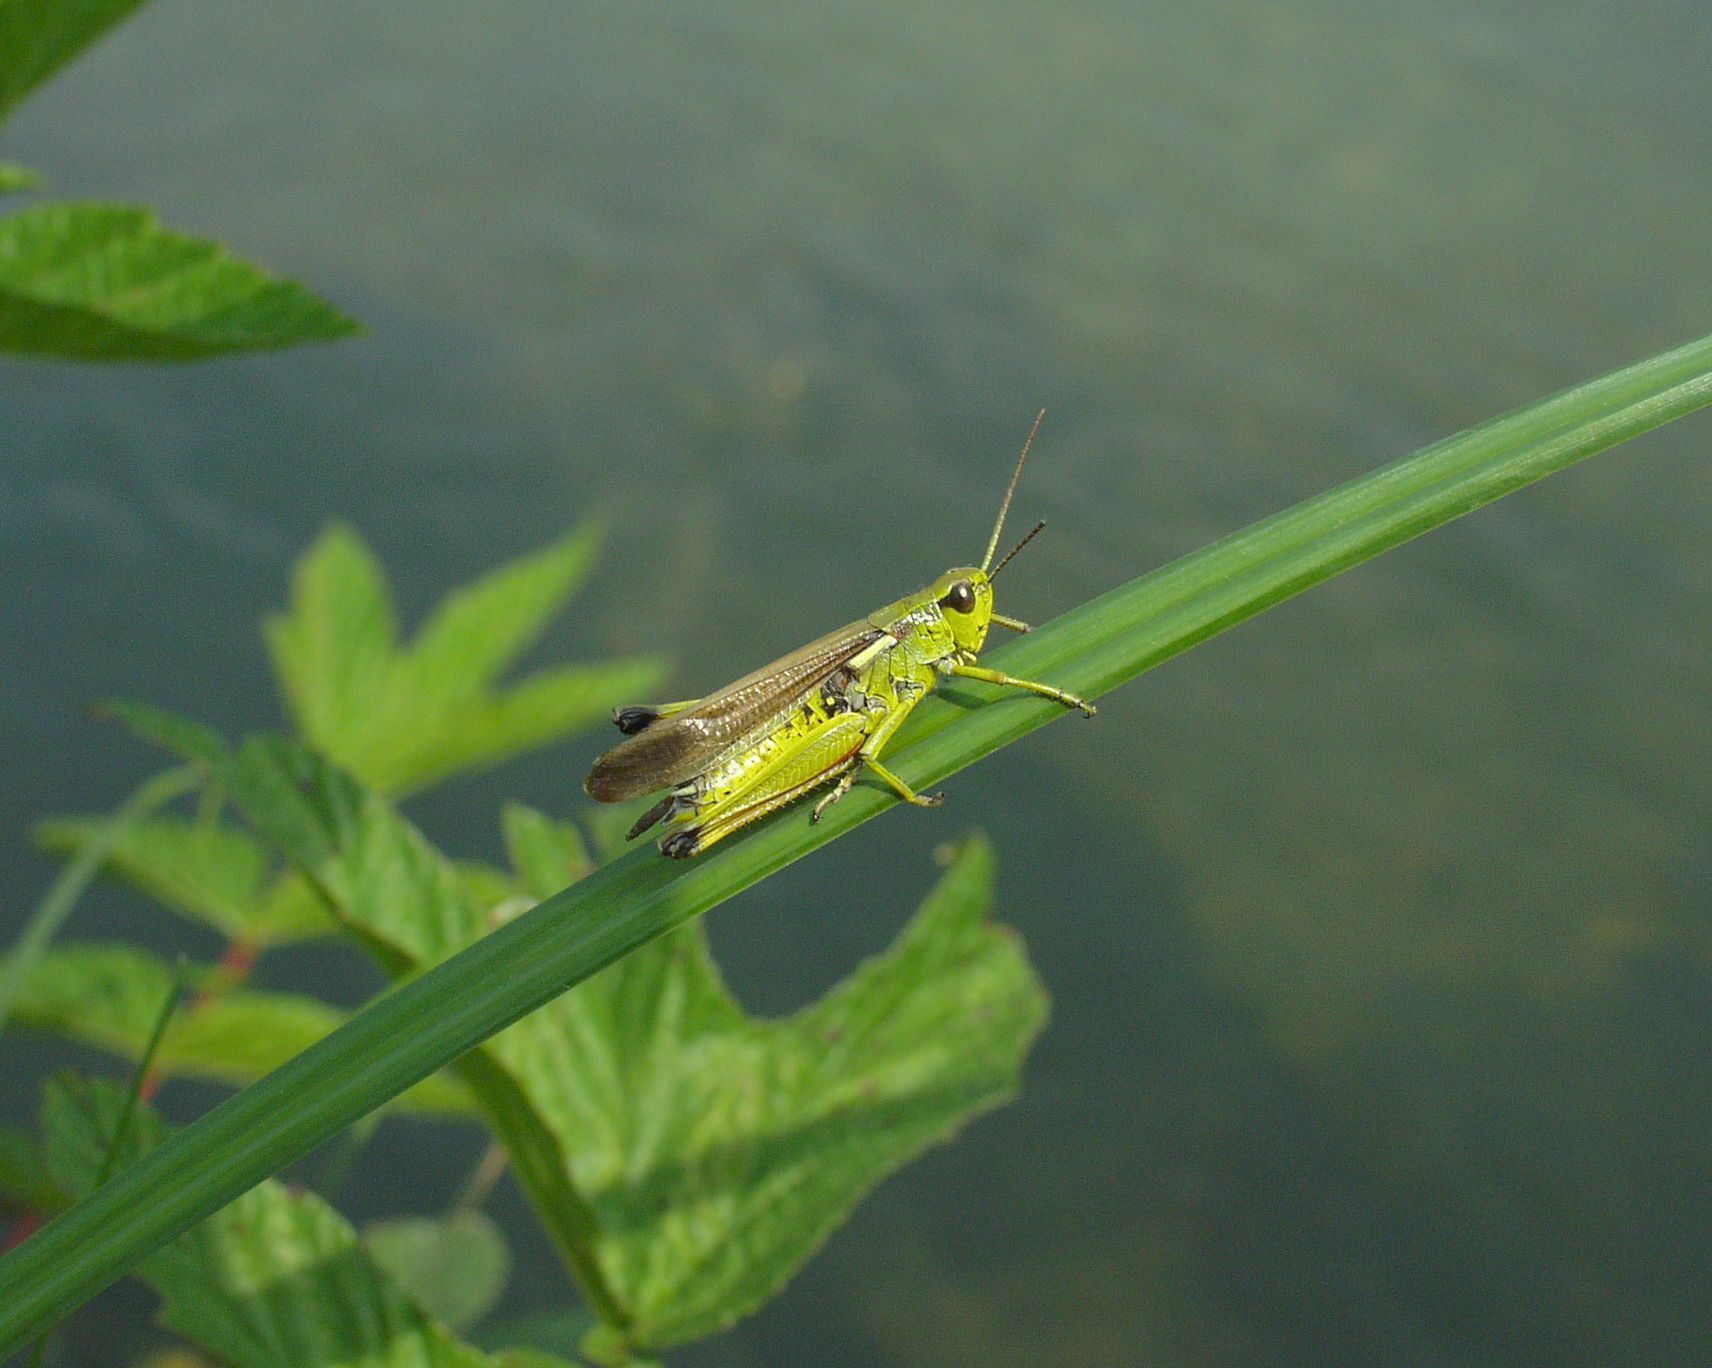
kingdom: Animalia
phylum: Arthropoda
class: Insecta
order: Orthoptera
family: Acrididae
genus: Stethophyma
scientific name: Stethophyma grossum
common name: Large marsh grasshopper
